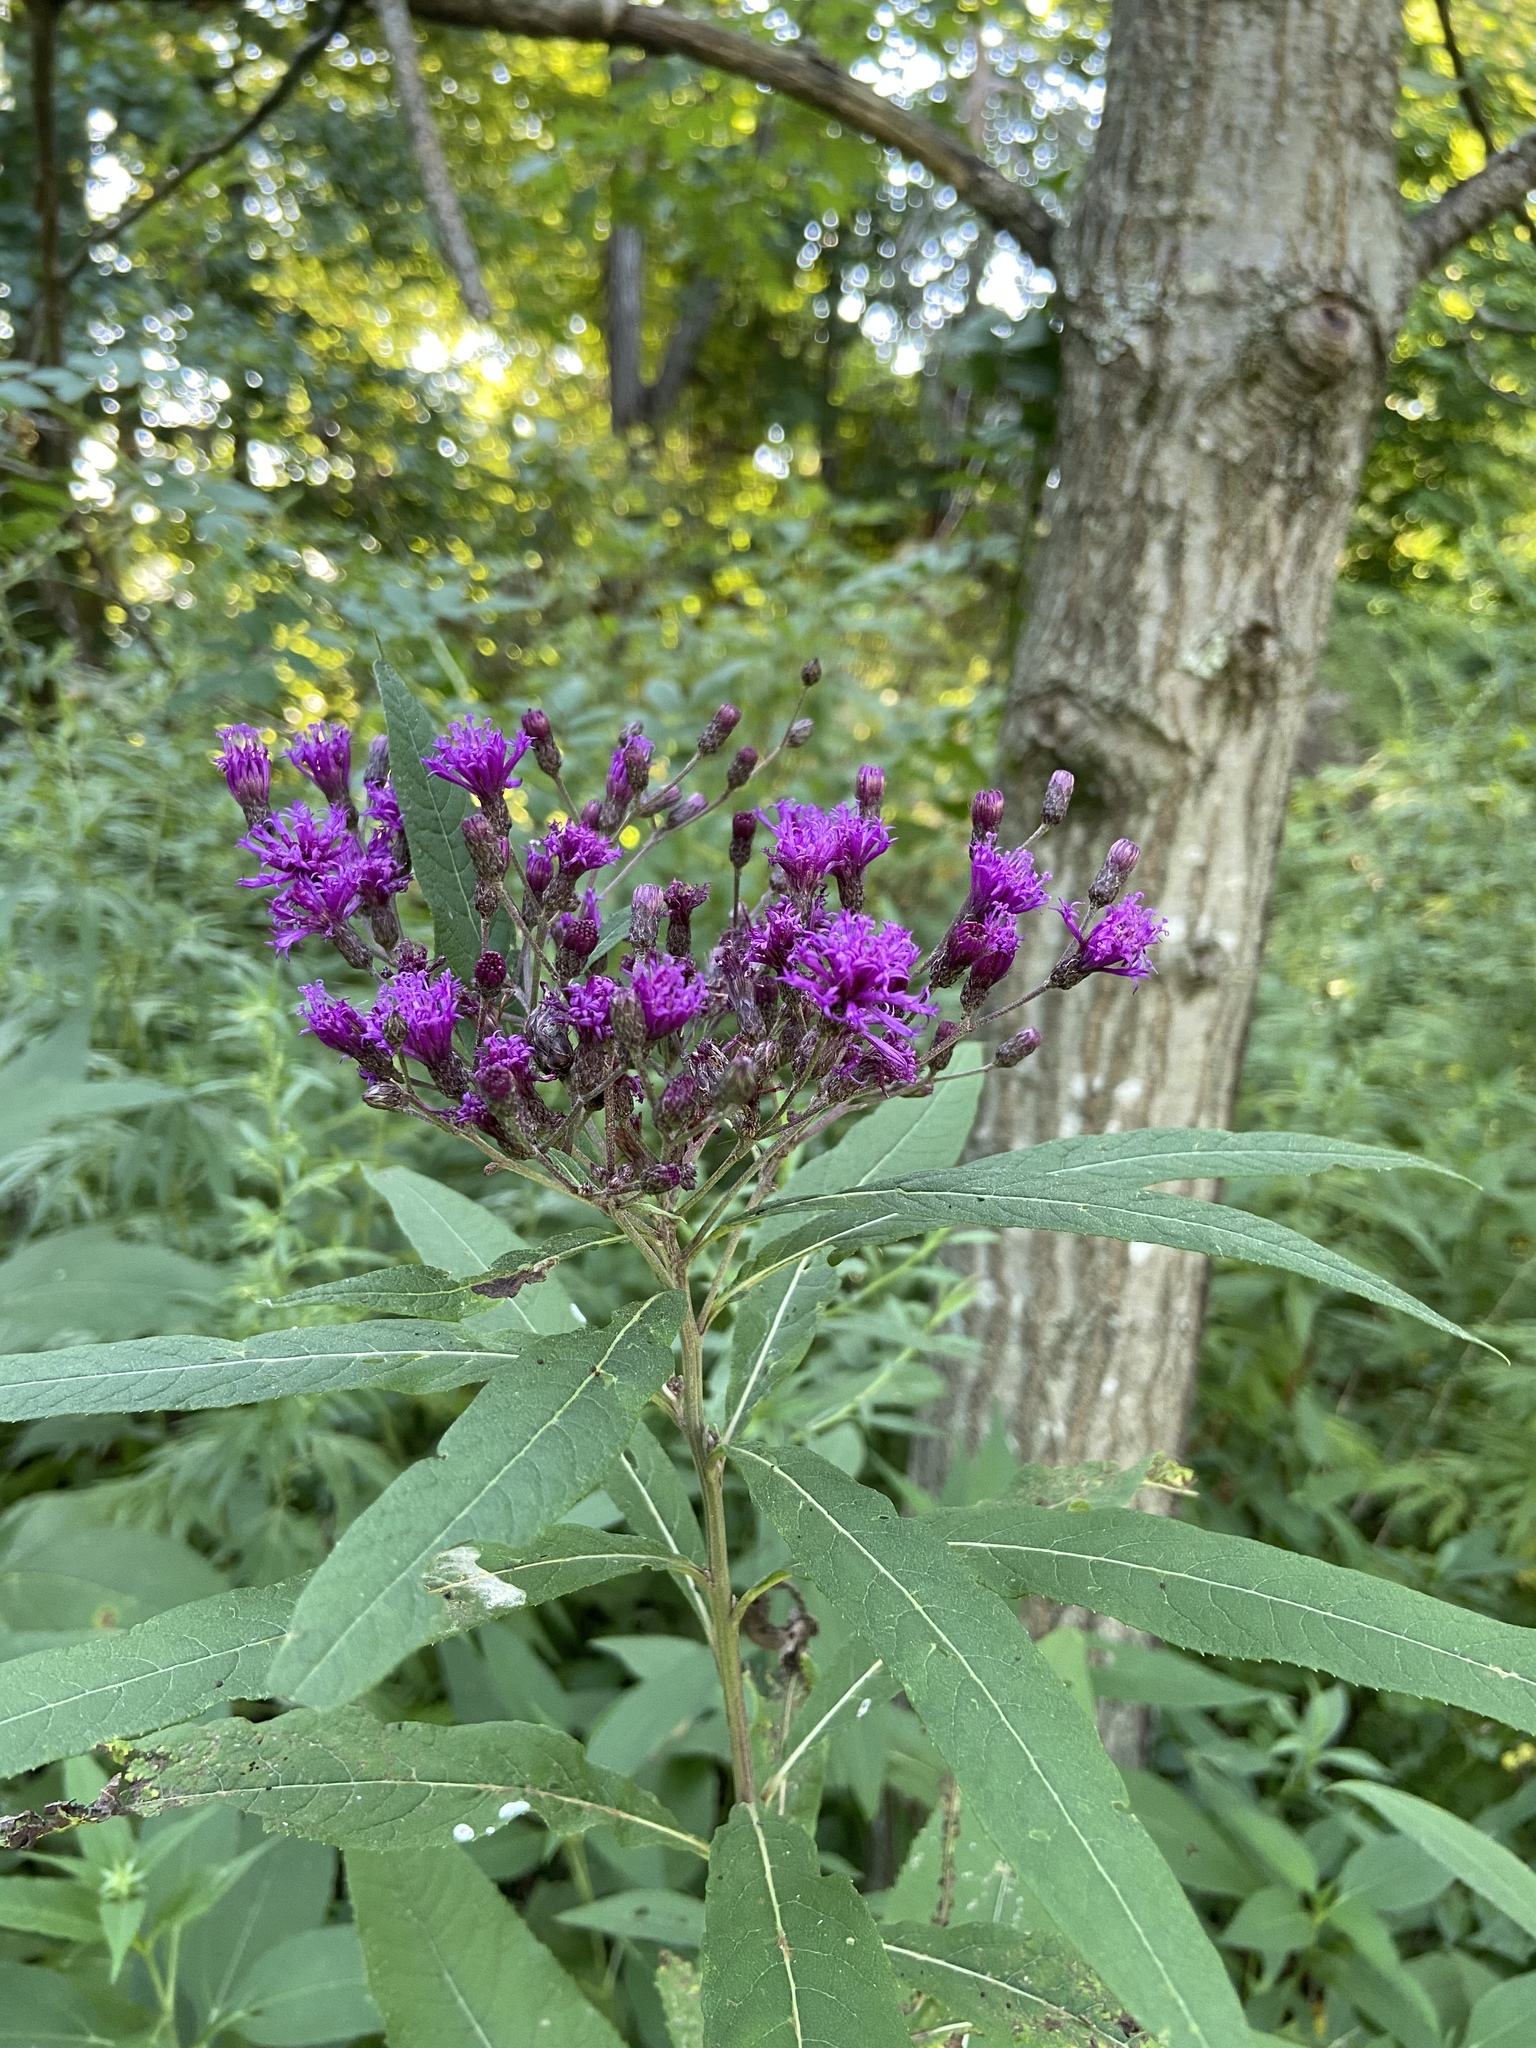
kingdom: Plantae
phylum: Tracheophyta
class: Magnoliopsida
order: Asterales
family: Asteraceae
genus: Vernonia
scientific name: Vernonia noveboracensis
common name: New york ironweed
